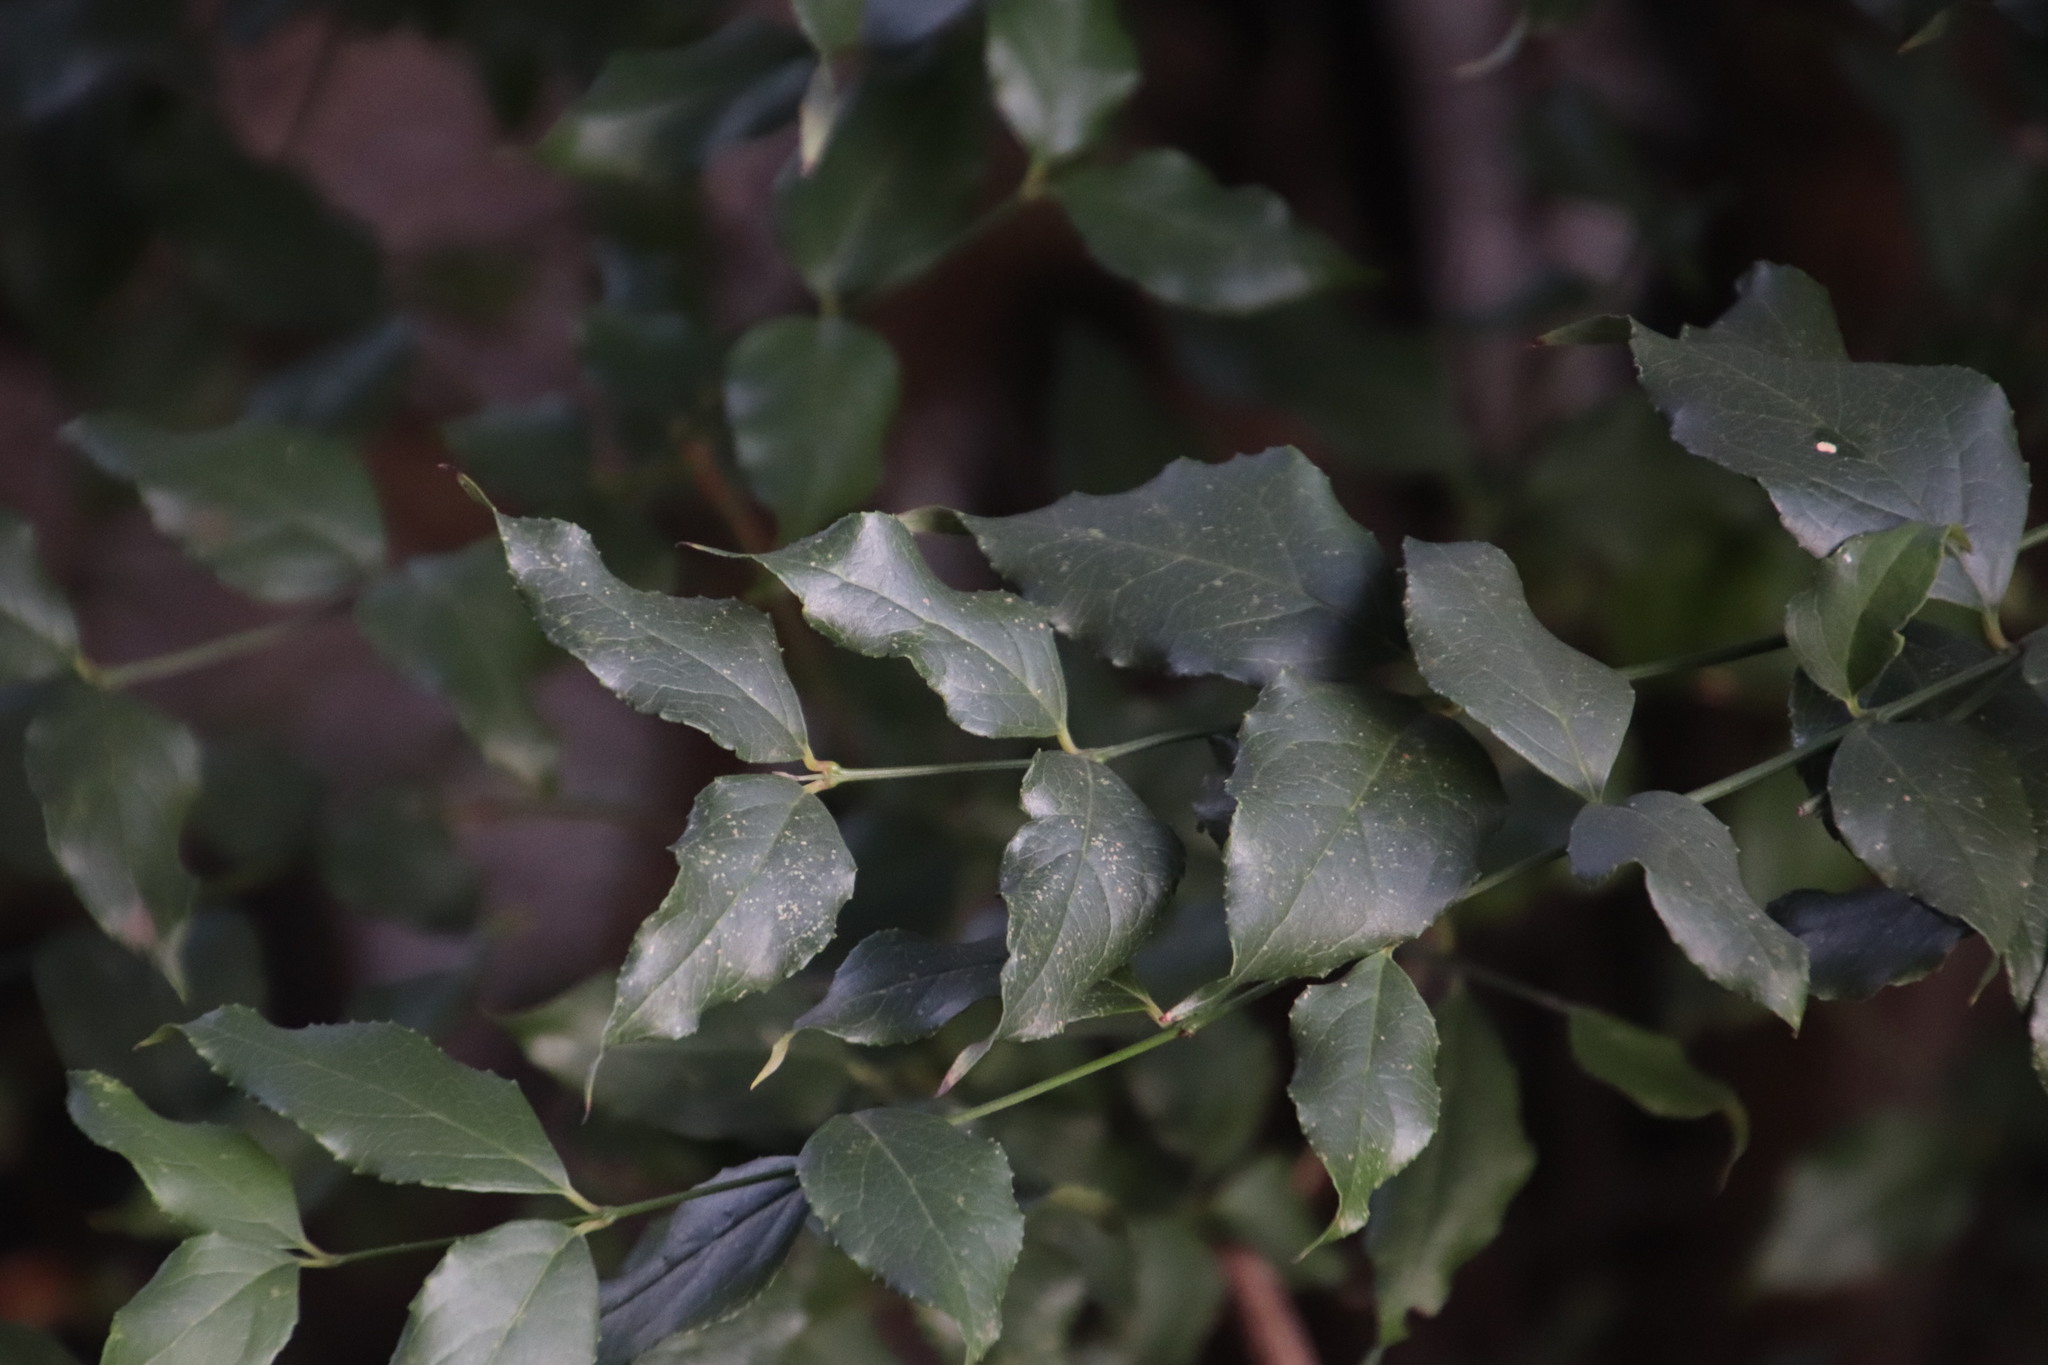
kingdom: Plantae
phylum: Tracheophyta
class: Magnoliopsida
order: Lamiales
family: Stilbaceae
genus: Halleria
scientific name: Halleria lucida
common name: Tree fuschia
